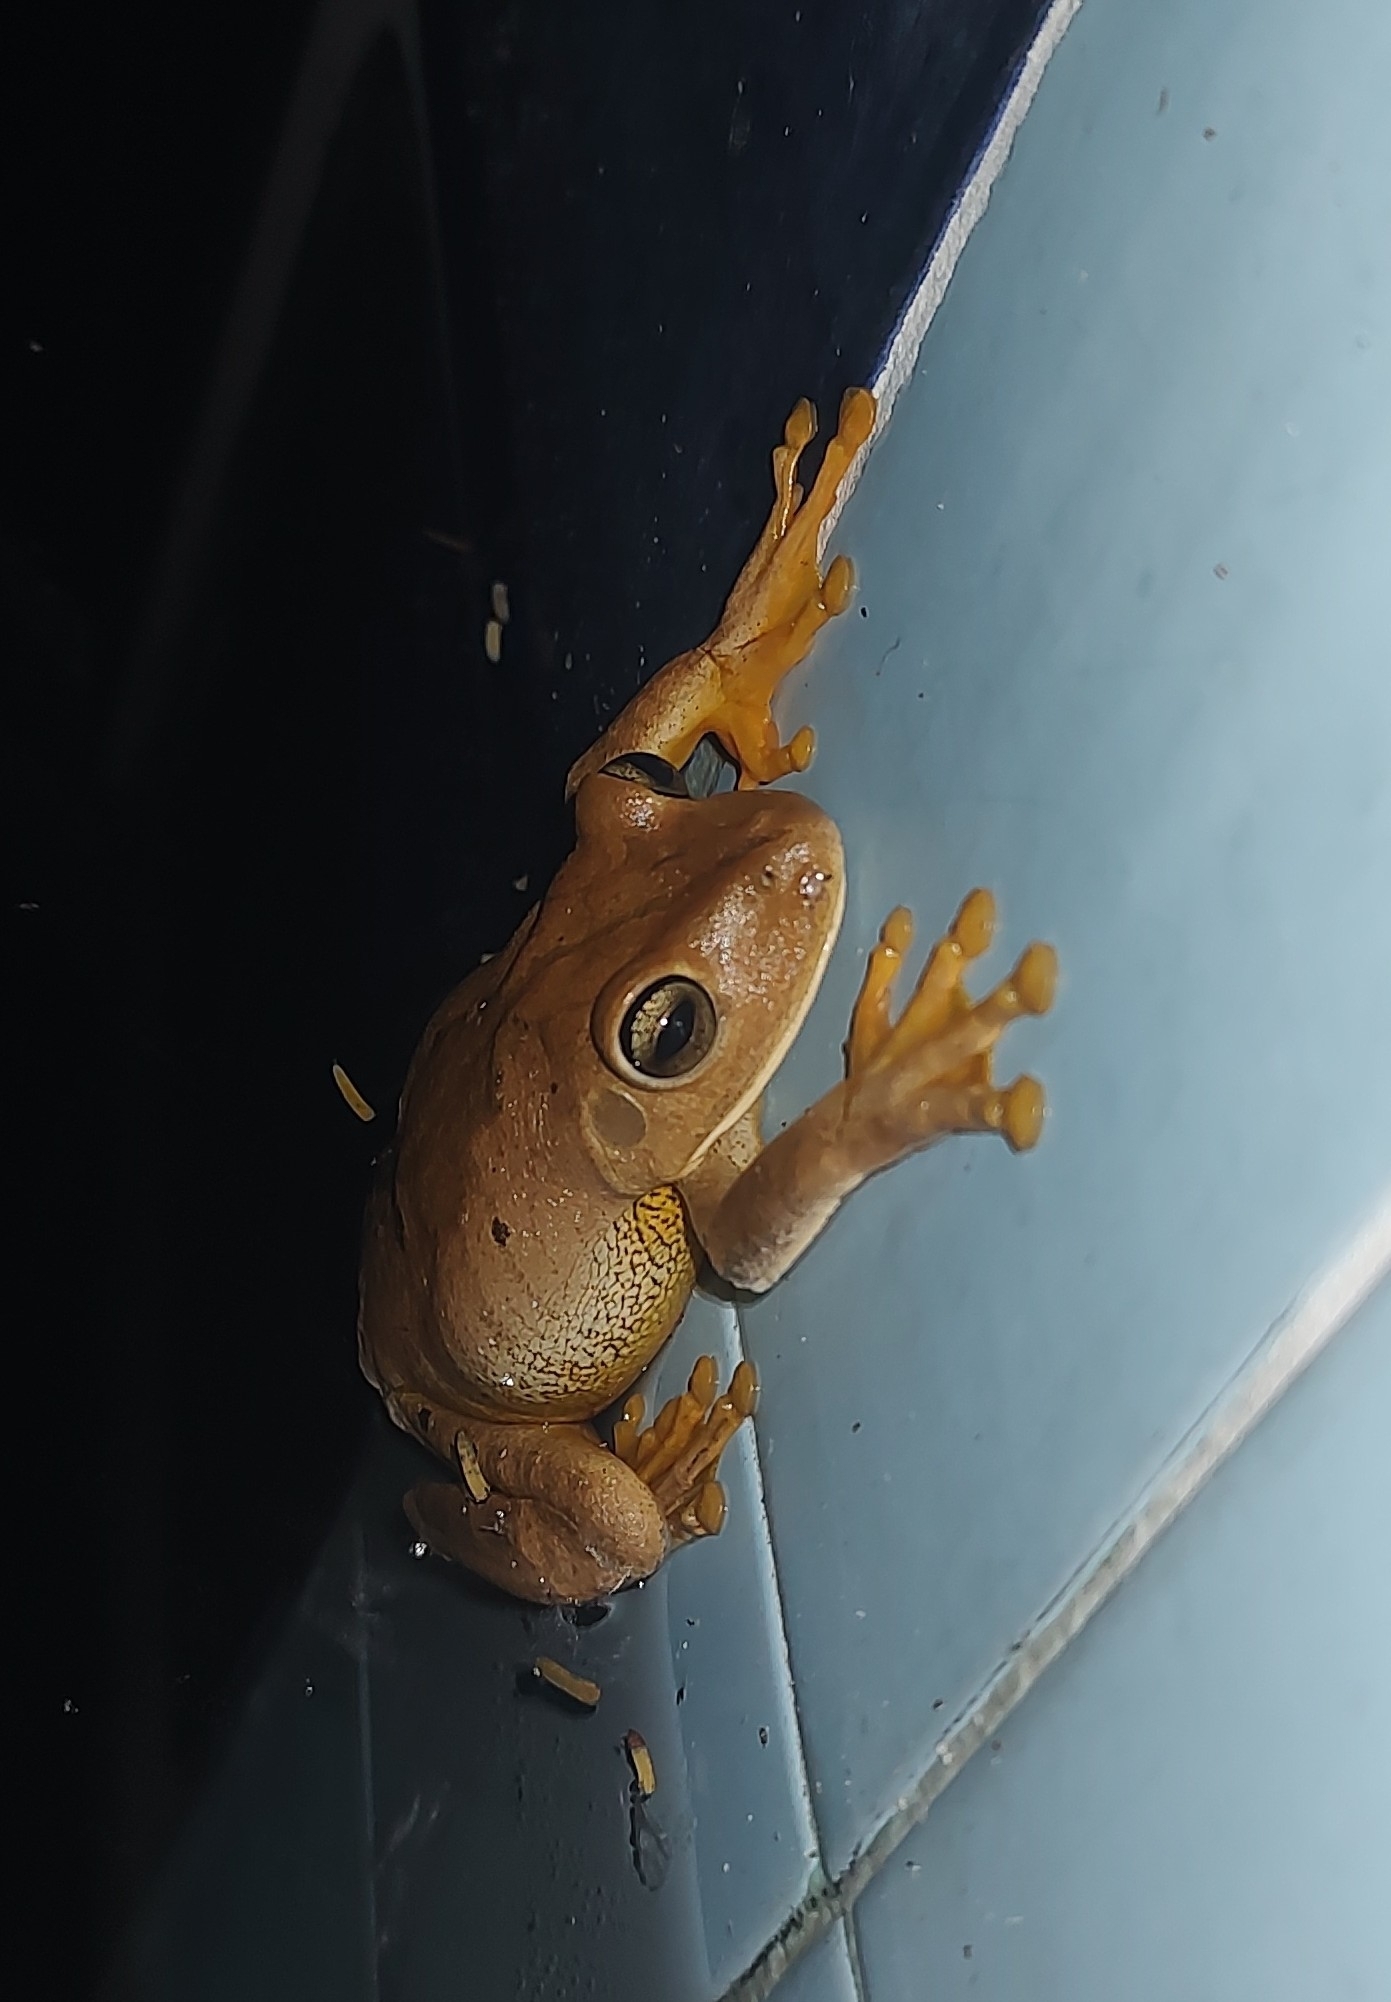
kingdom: Animalia
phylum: Chordata
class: Amphibia
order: Anura
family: Hylidae
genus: Boana
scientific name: Boana faber
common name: Blacksmith tree frog
